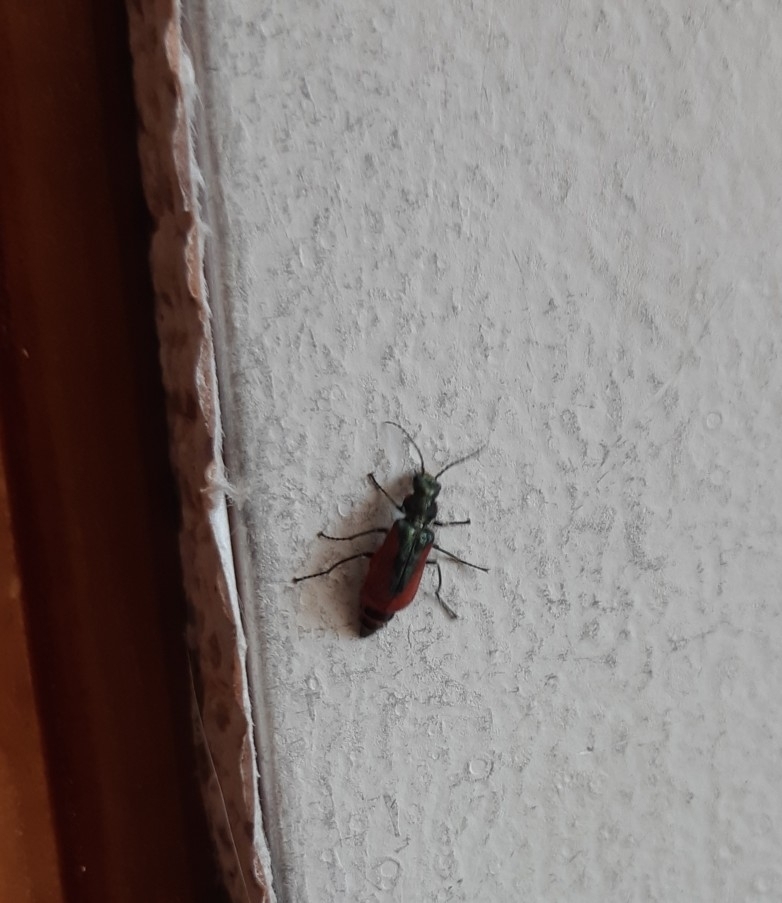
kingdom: Animalia
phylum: Arthropoda
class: Insecta
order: Coleoptera
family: Melyridae
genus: Malachius
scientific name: Malachius aeneus
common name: Scarlet malachite beetle
